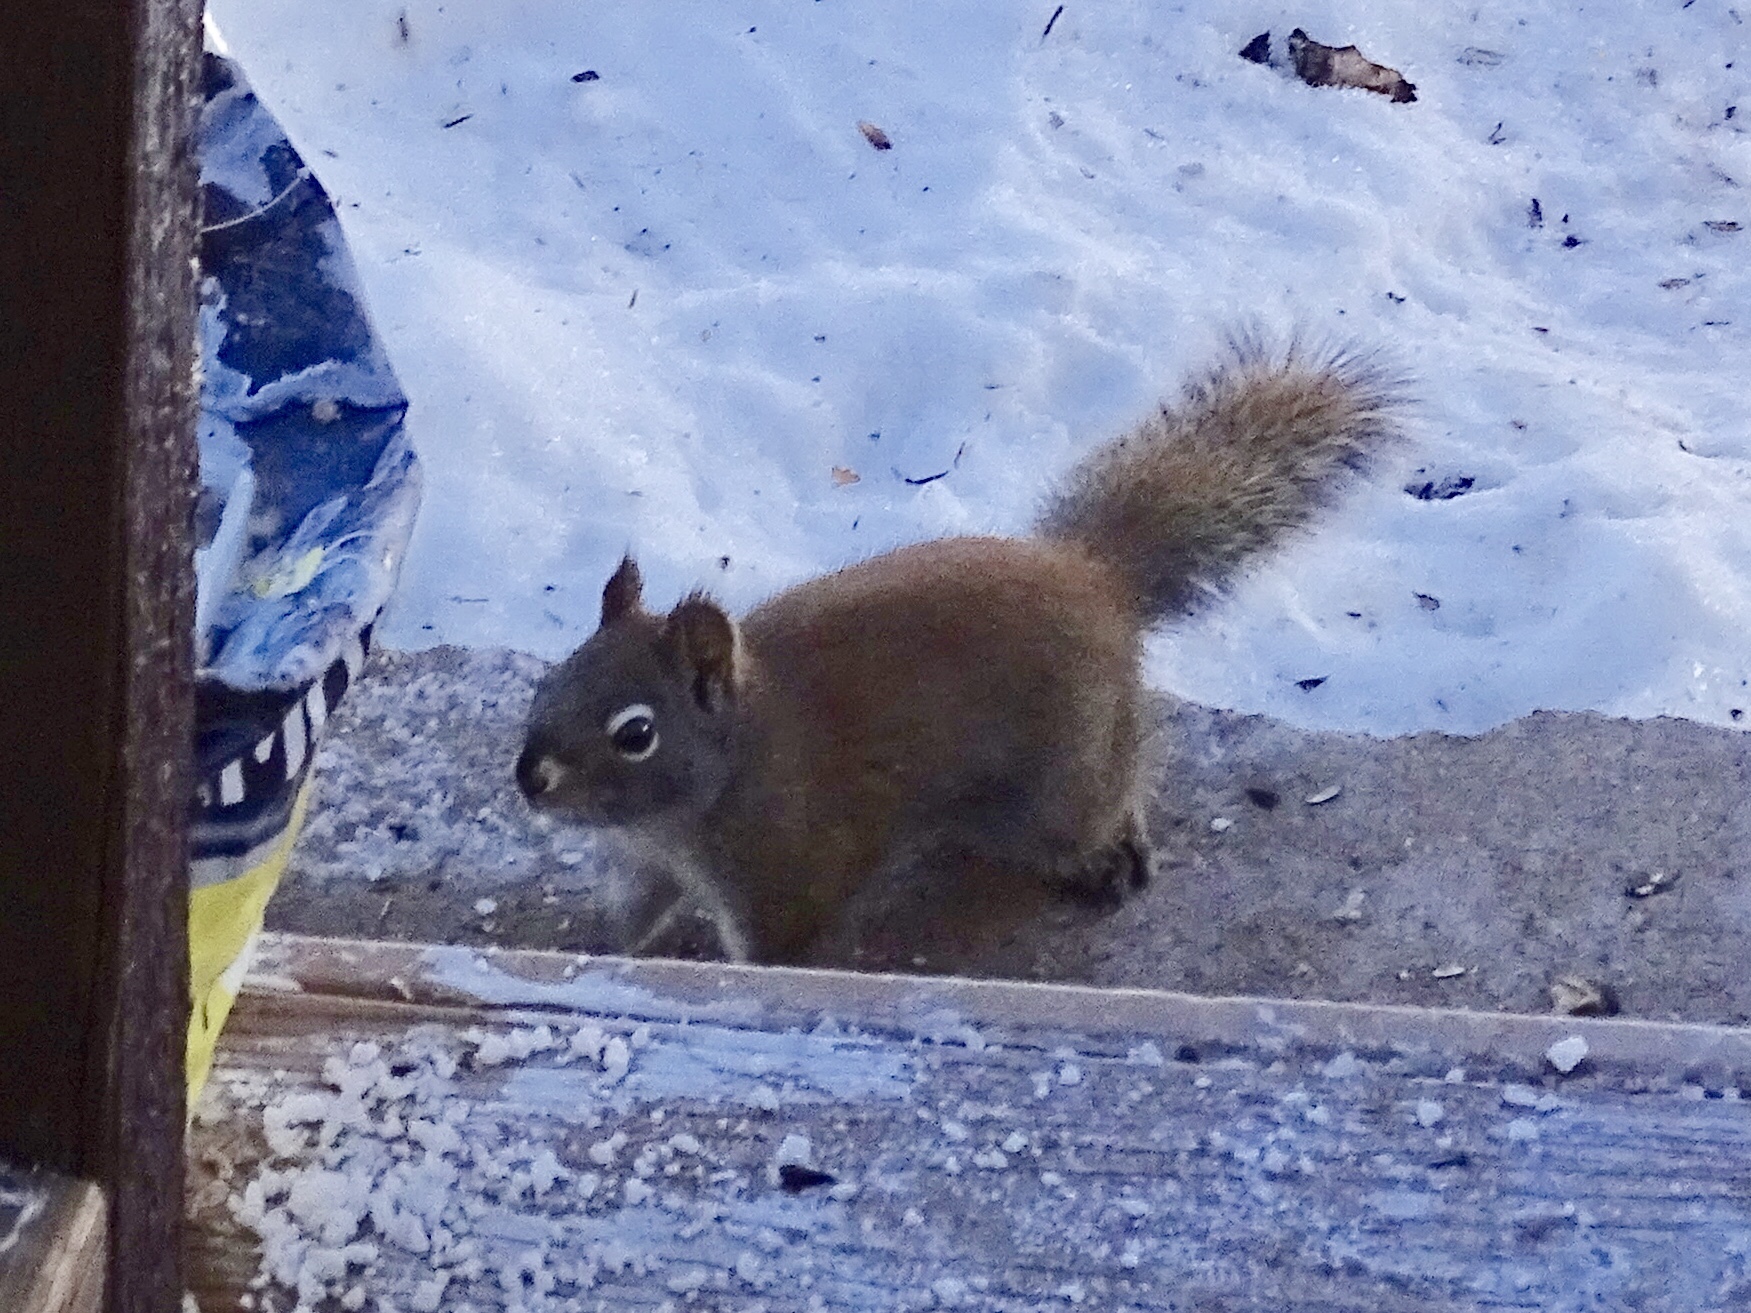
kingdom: Animalia
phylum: Chordata
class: Mammalia
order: Rodentia
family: Sciuridae
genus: Tamiasciurus
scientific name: Tamiasciurus hudsonicus
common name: Red squirrel
